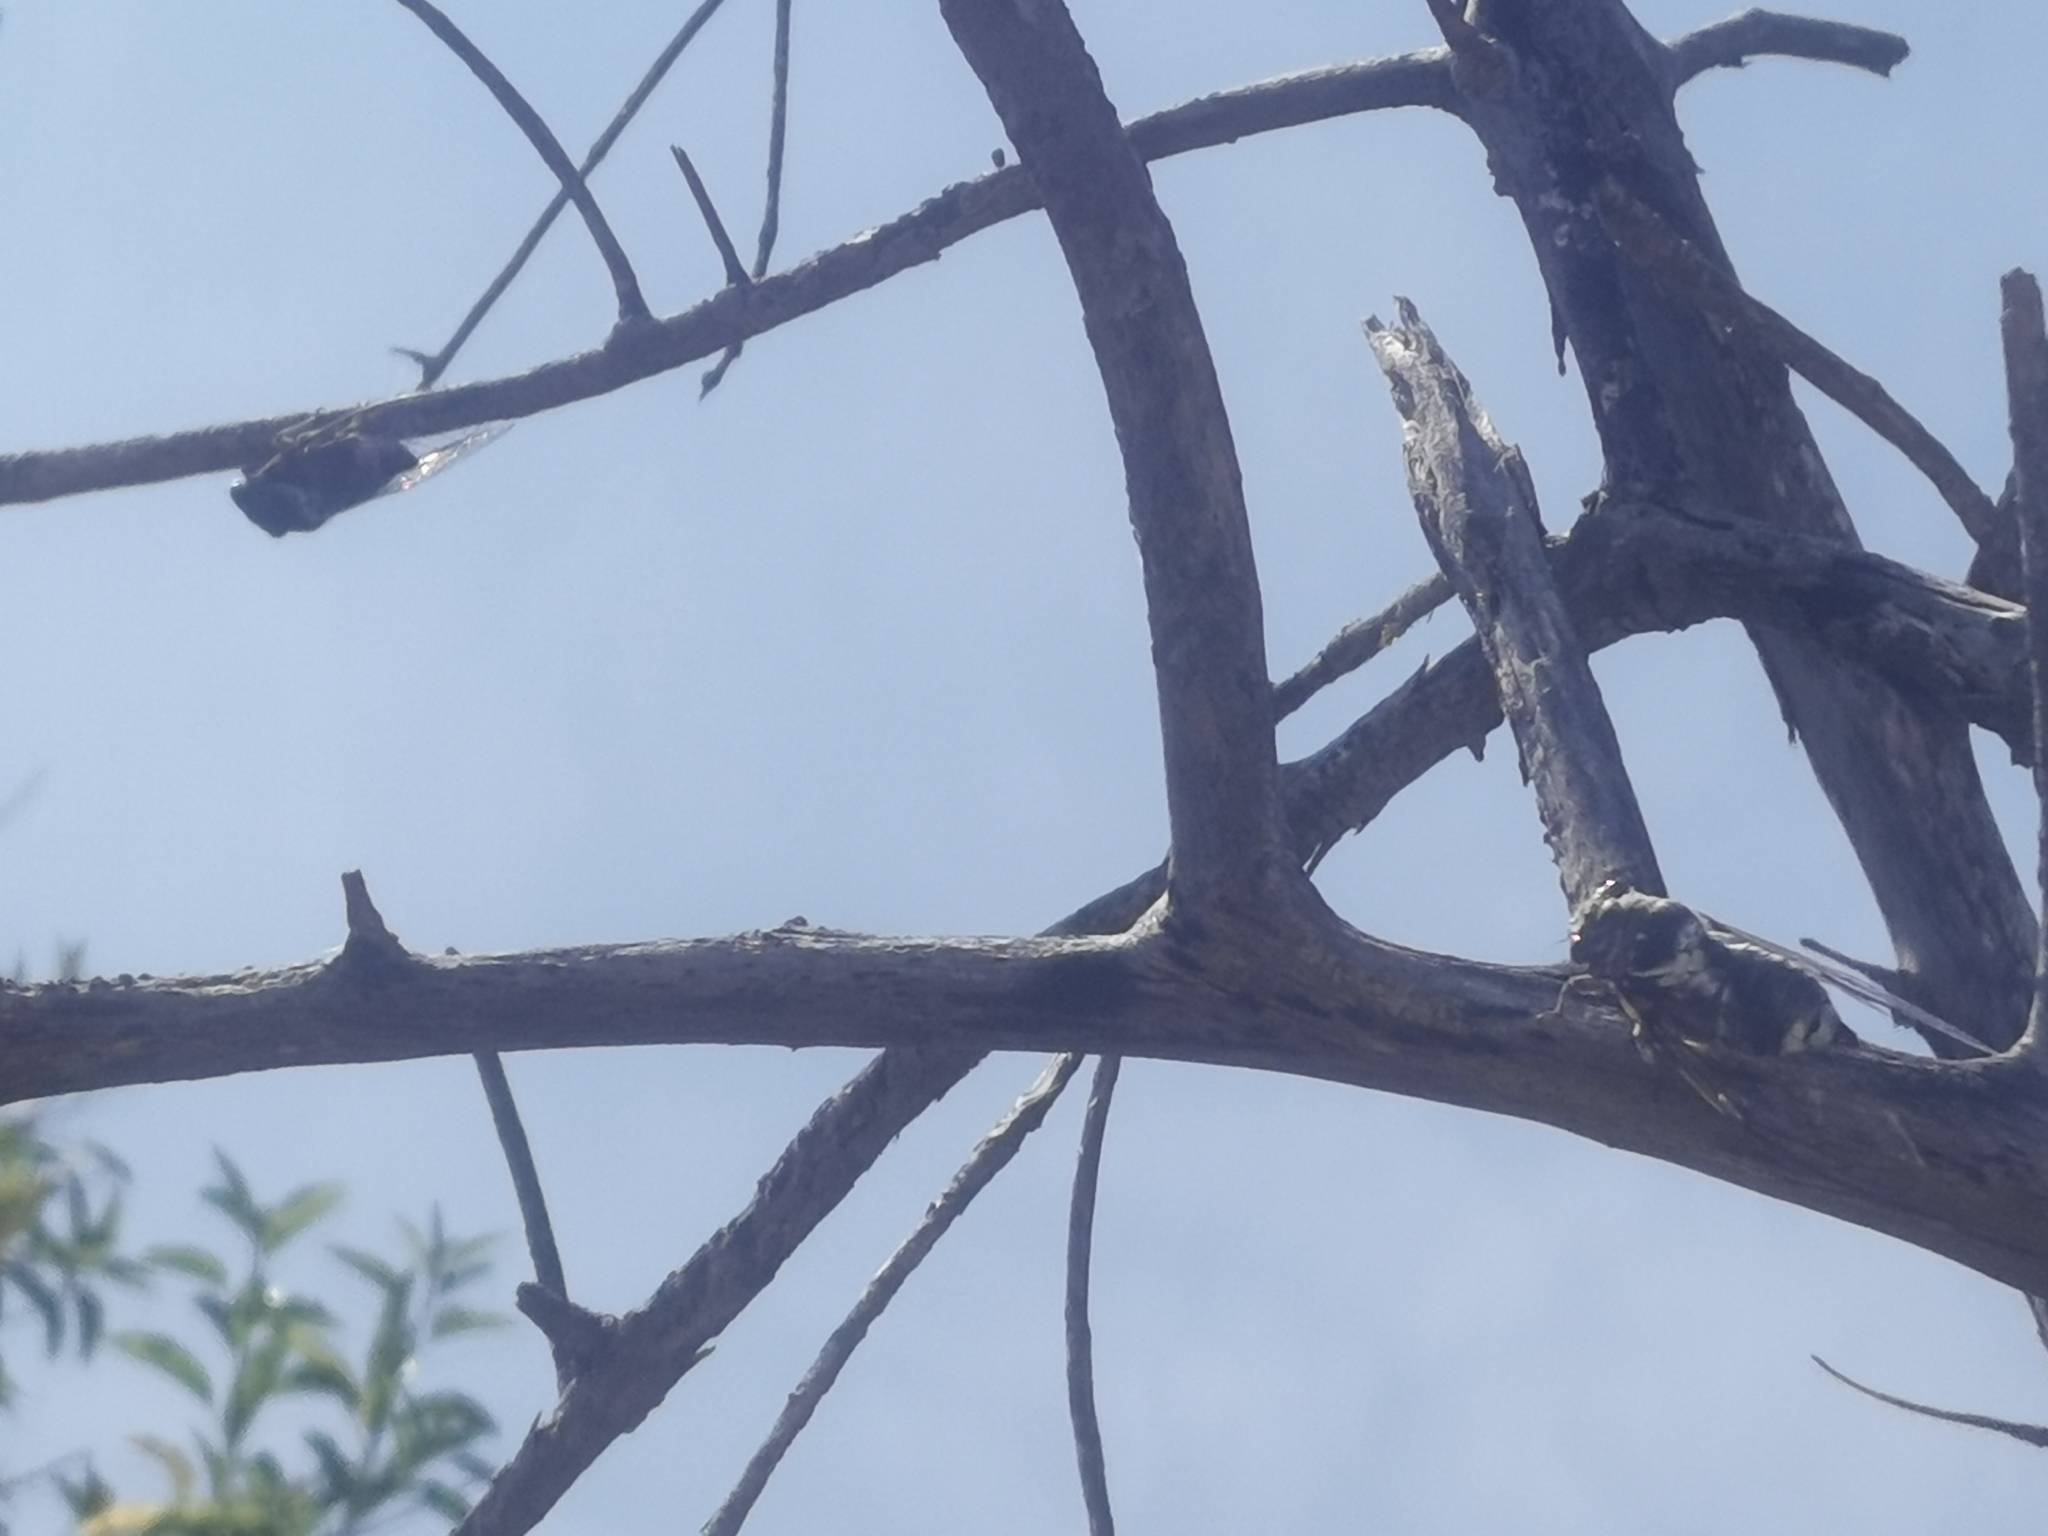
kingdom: Animalia
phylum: Arthropoda
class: Insecta
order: Hemiptera
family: Cicadidae
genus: Lyristes
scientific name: Lyristes plebejus
